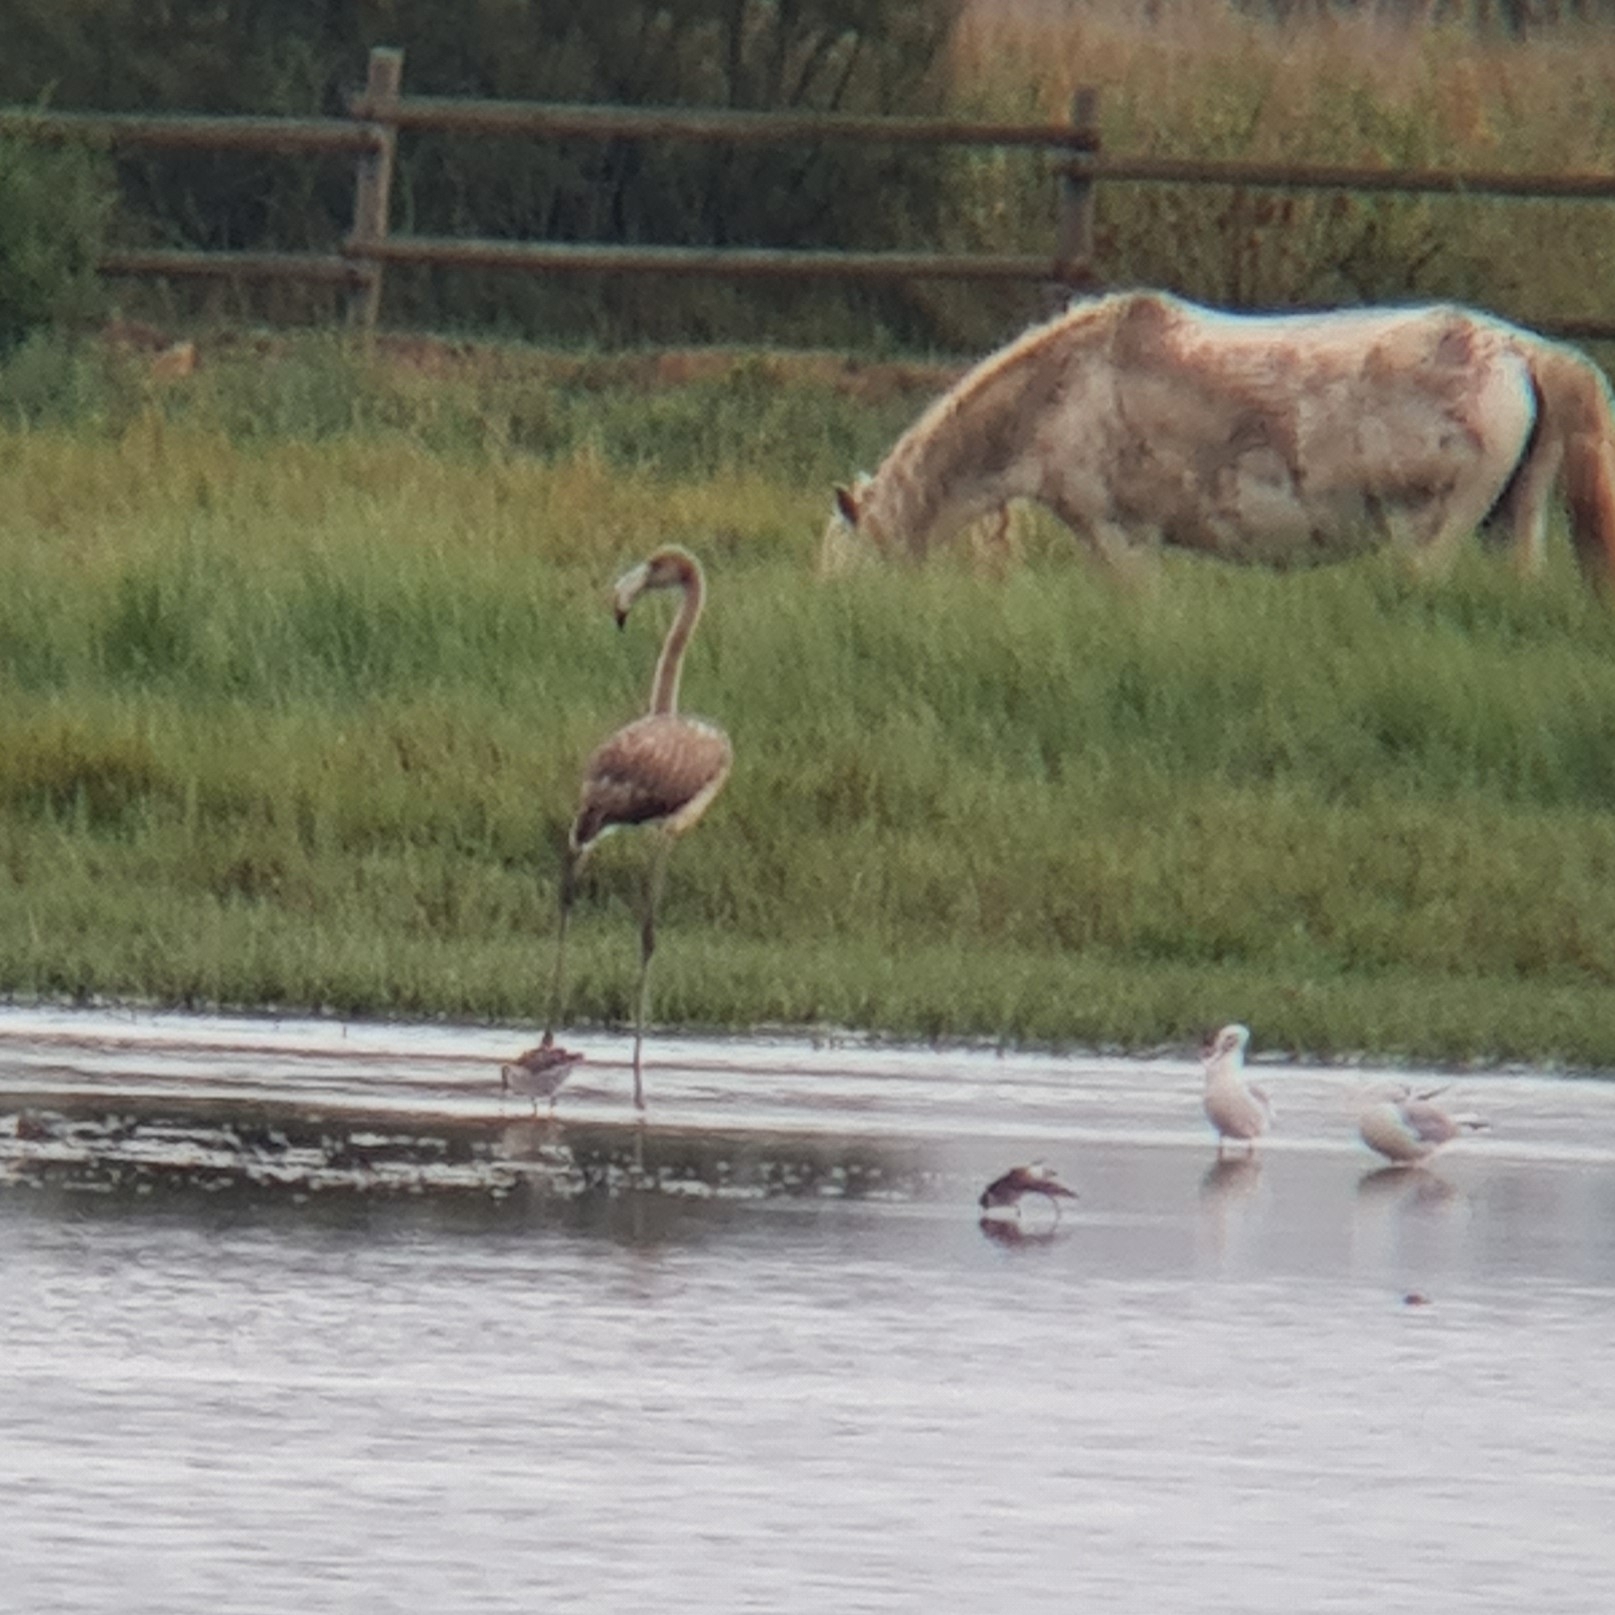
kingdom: Animalia
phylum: Chordata
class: Aves
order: Phoenicopteriformes
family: Phoenicopteridae
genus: Phoenicopterus
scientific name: Phoenicopterus roseus
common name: Greater flamingo
